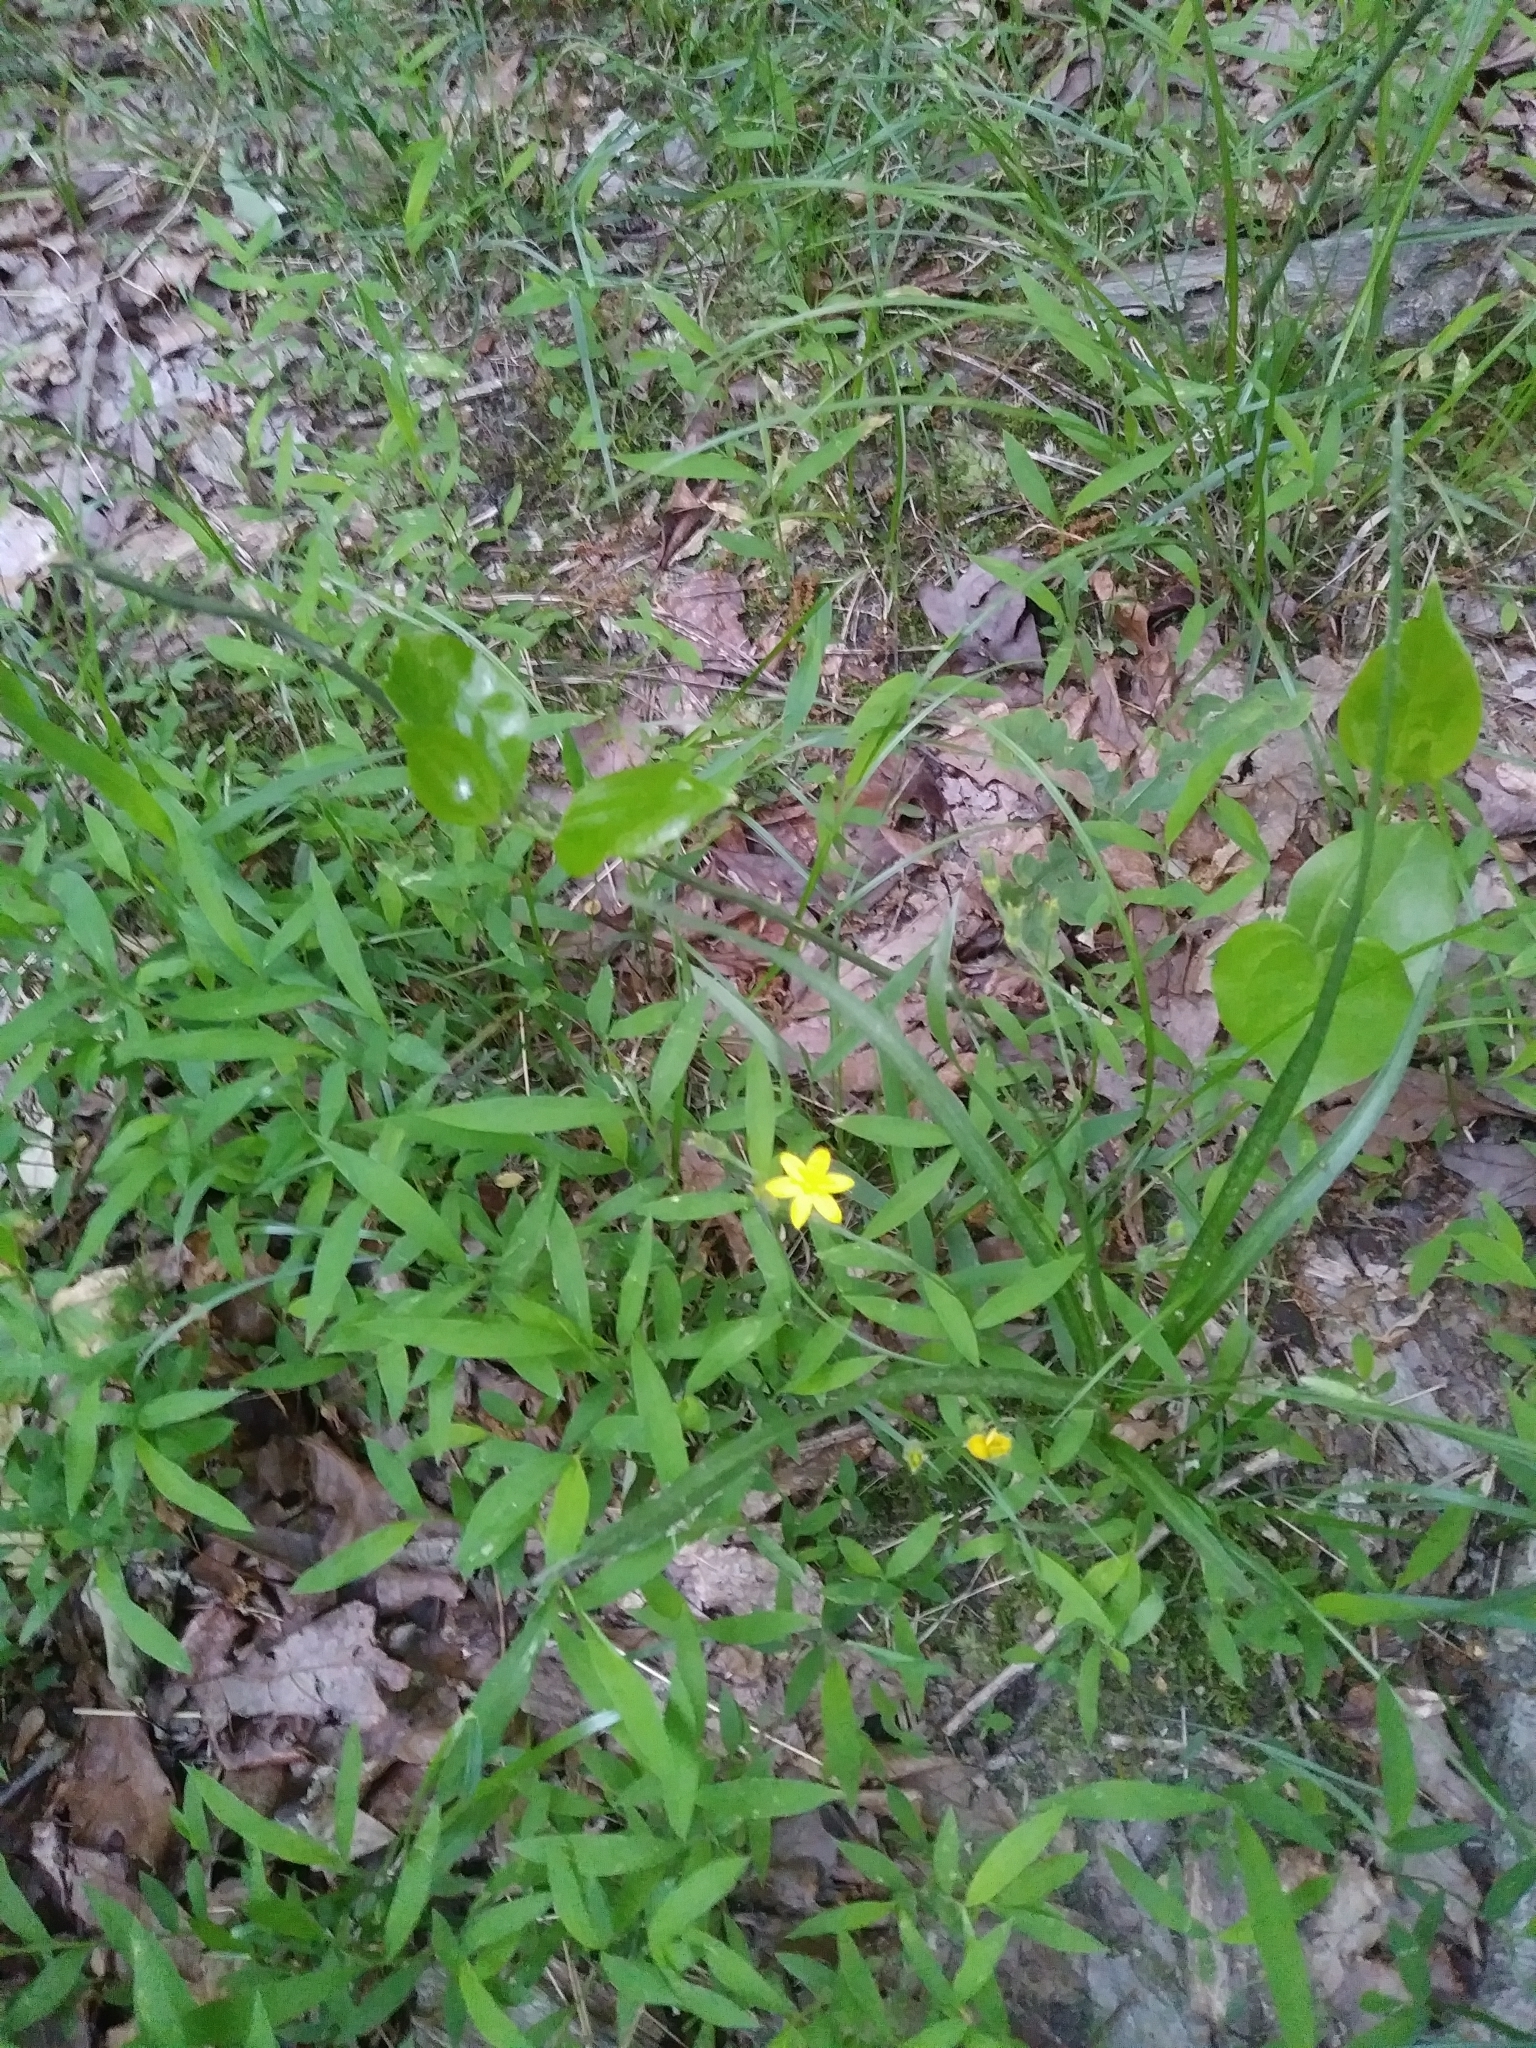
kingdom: Plantae
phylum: Tracheophyta
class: Liliopsida
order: Asparagales
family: Hypoxidaceae
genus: Hypoxis
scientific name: Hypoxis hirsuta
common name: Common goldstar
